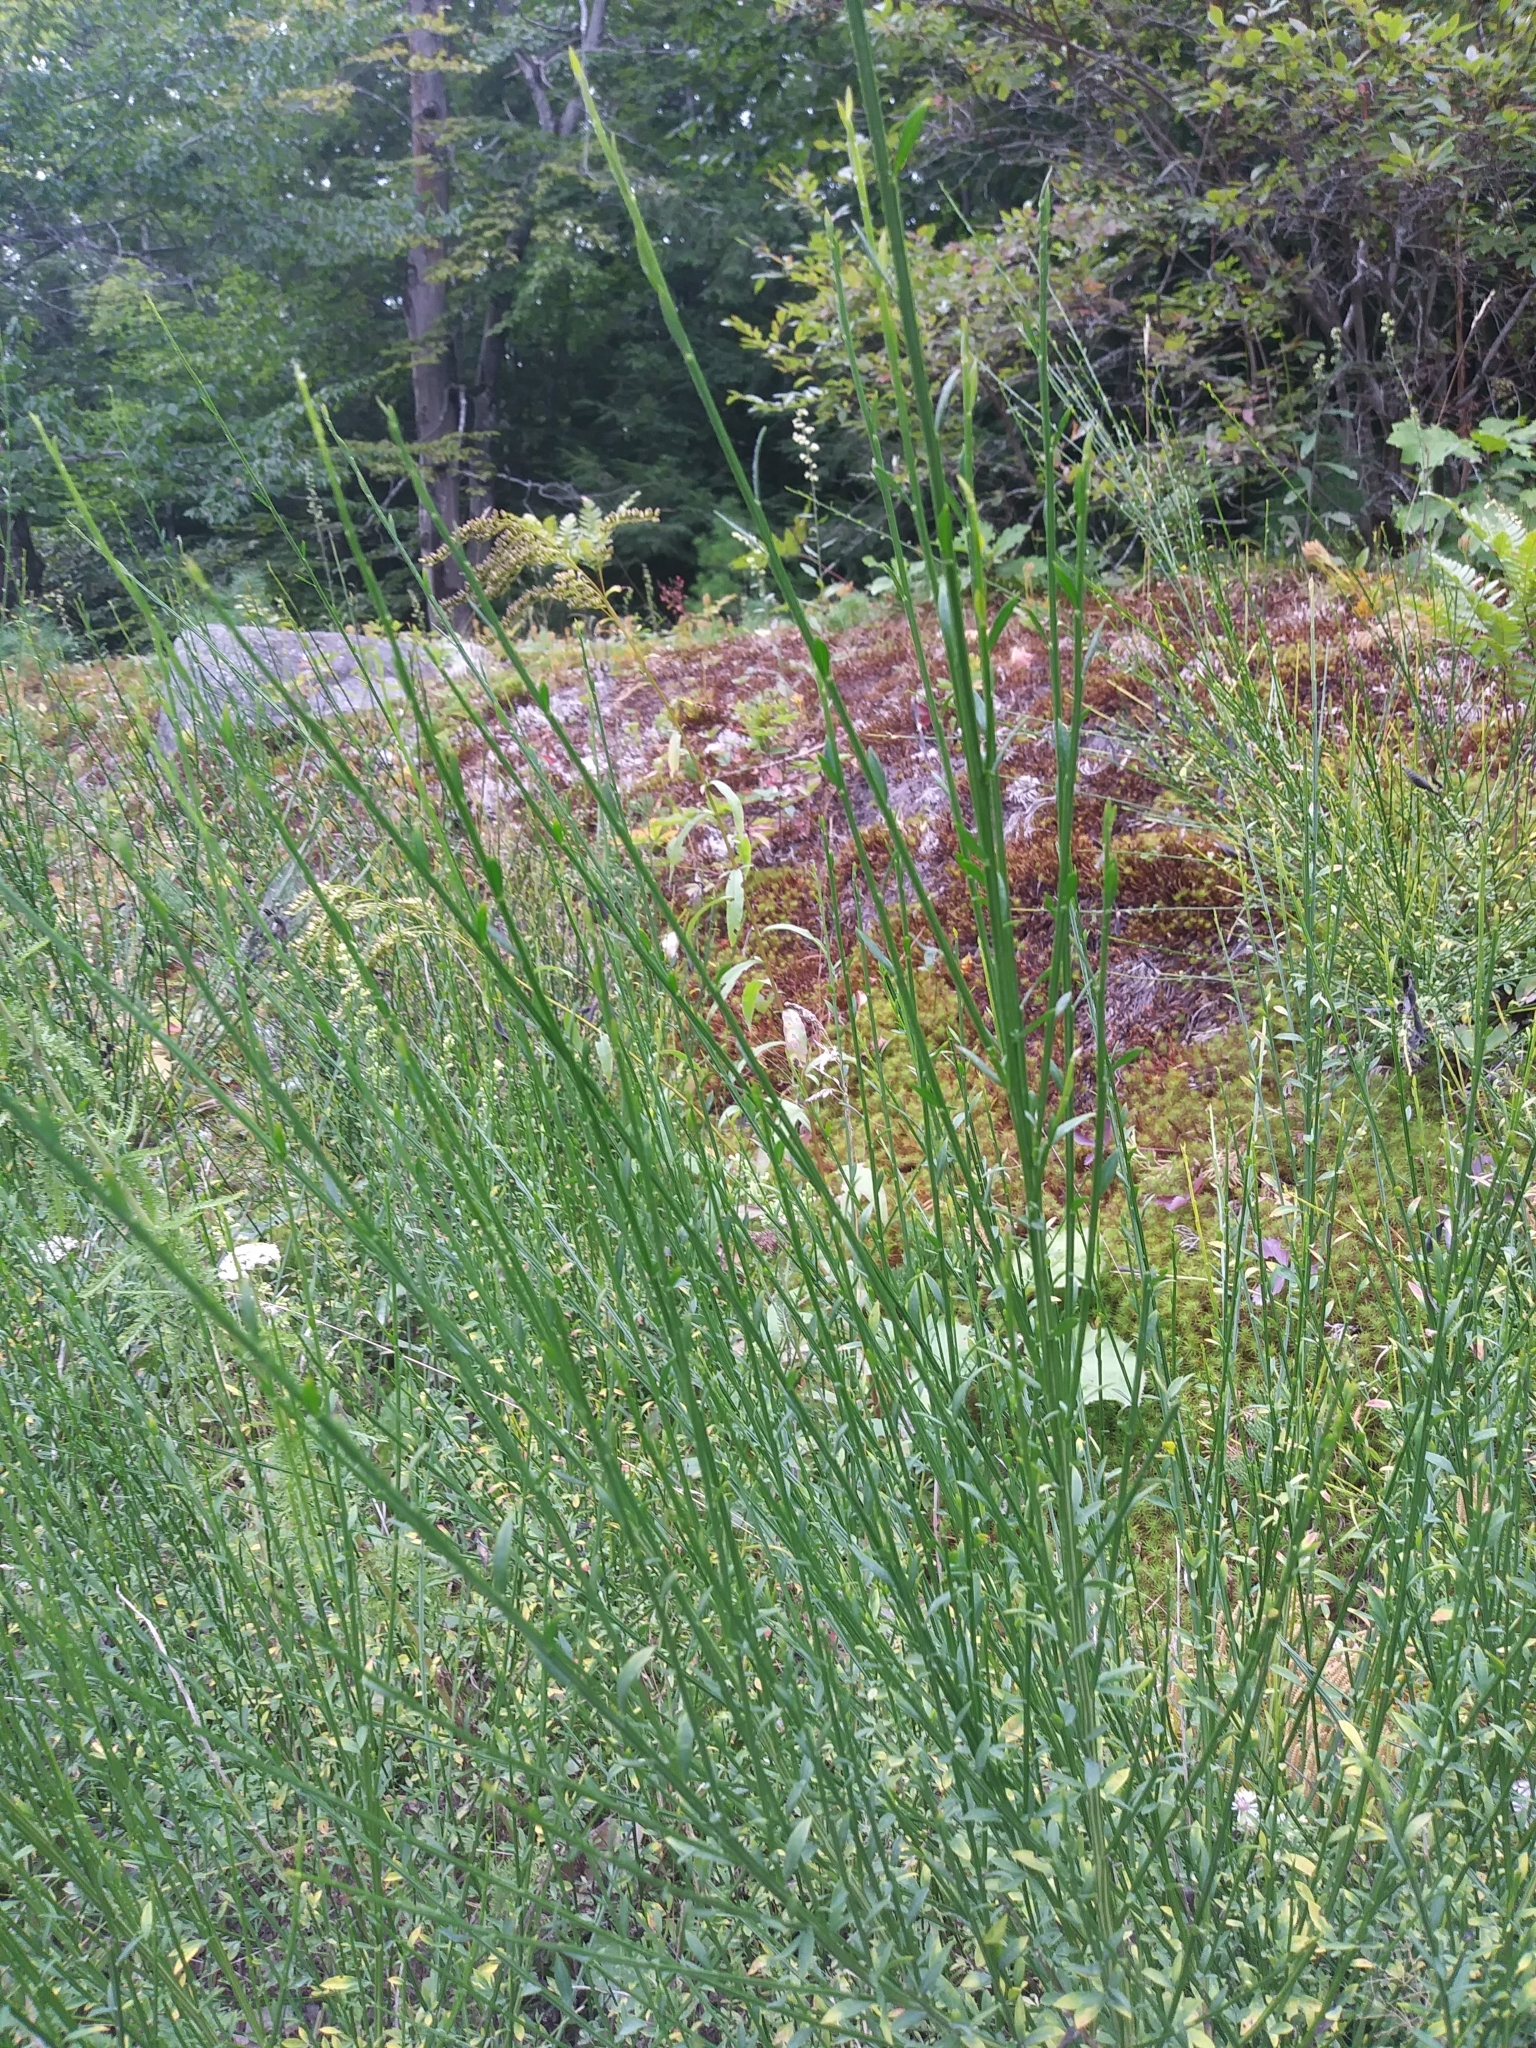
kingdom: Plantae
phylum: Tracheophyta
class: Magnoliopsida
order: Fabales
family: Fabaceae
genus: Cytisus
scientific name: Cytisus scoparius
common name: Scotch broom
